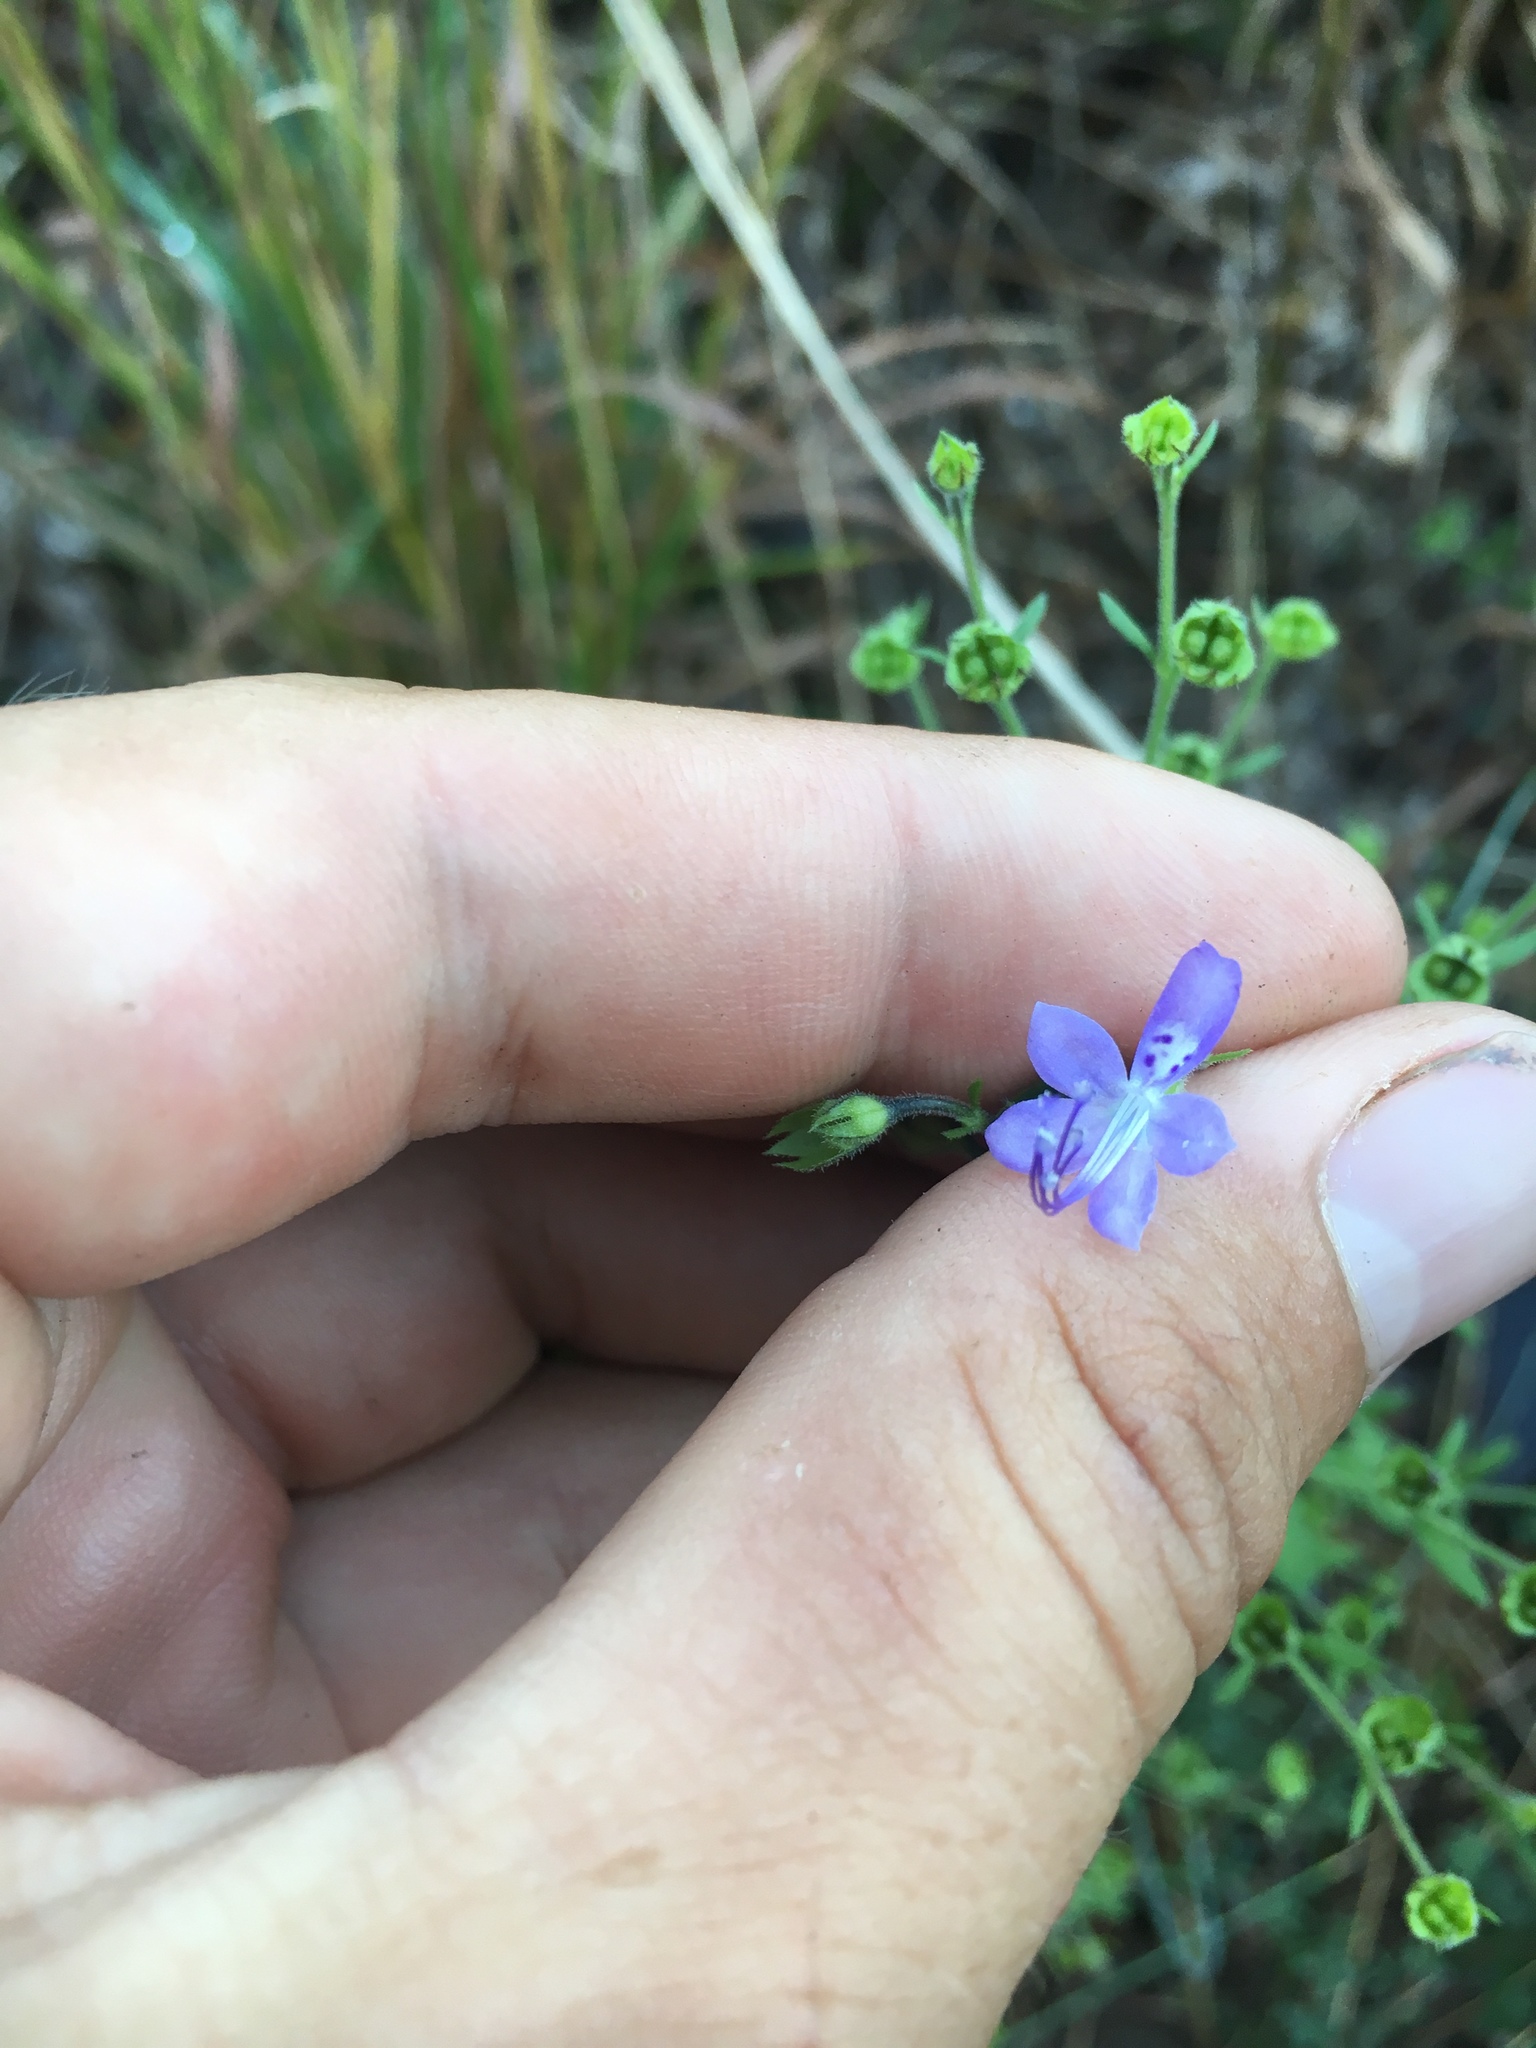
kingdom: Plantae
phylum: Tracheophyta
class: Magnoliopsida
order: Lamiales
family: Lamiaceae
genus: Trichostema
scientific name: Trichostema dichotomum
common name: Bastard pennyroyal
